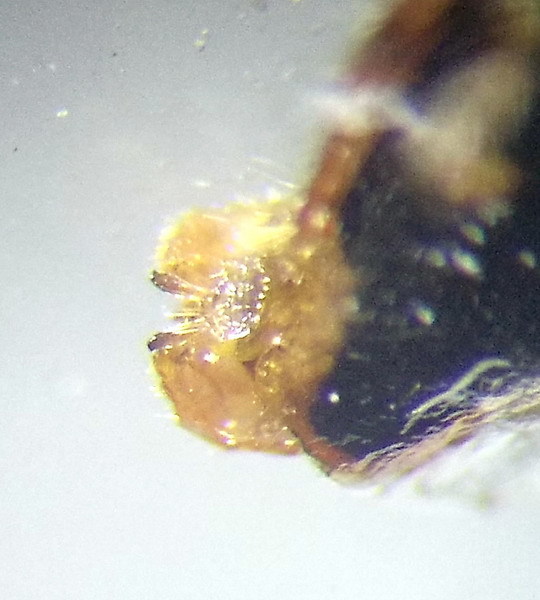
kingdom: Animalia
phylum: Arthropoda
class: Insecta
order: Hemiptera
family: Rhopalidae
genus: Brachycarenus
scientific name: Brachycarenus tigrinus
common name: Scentless plant bug
